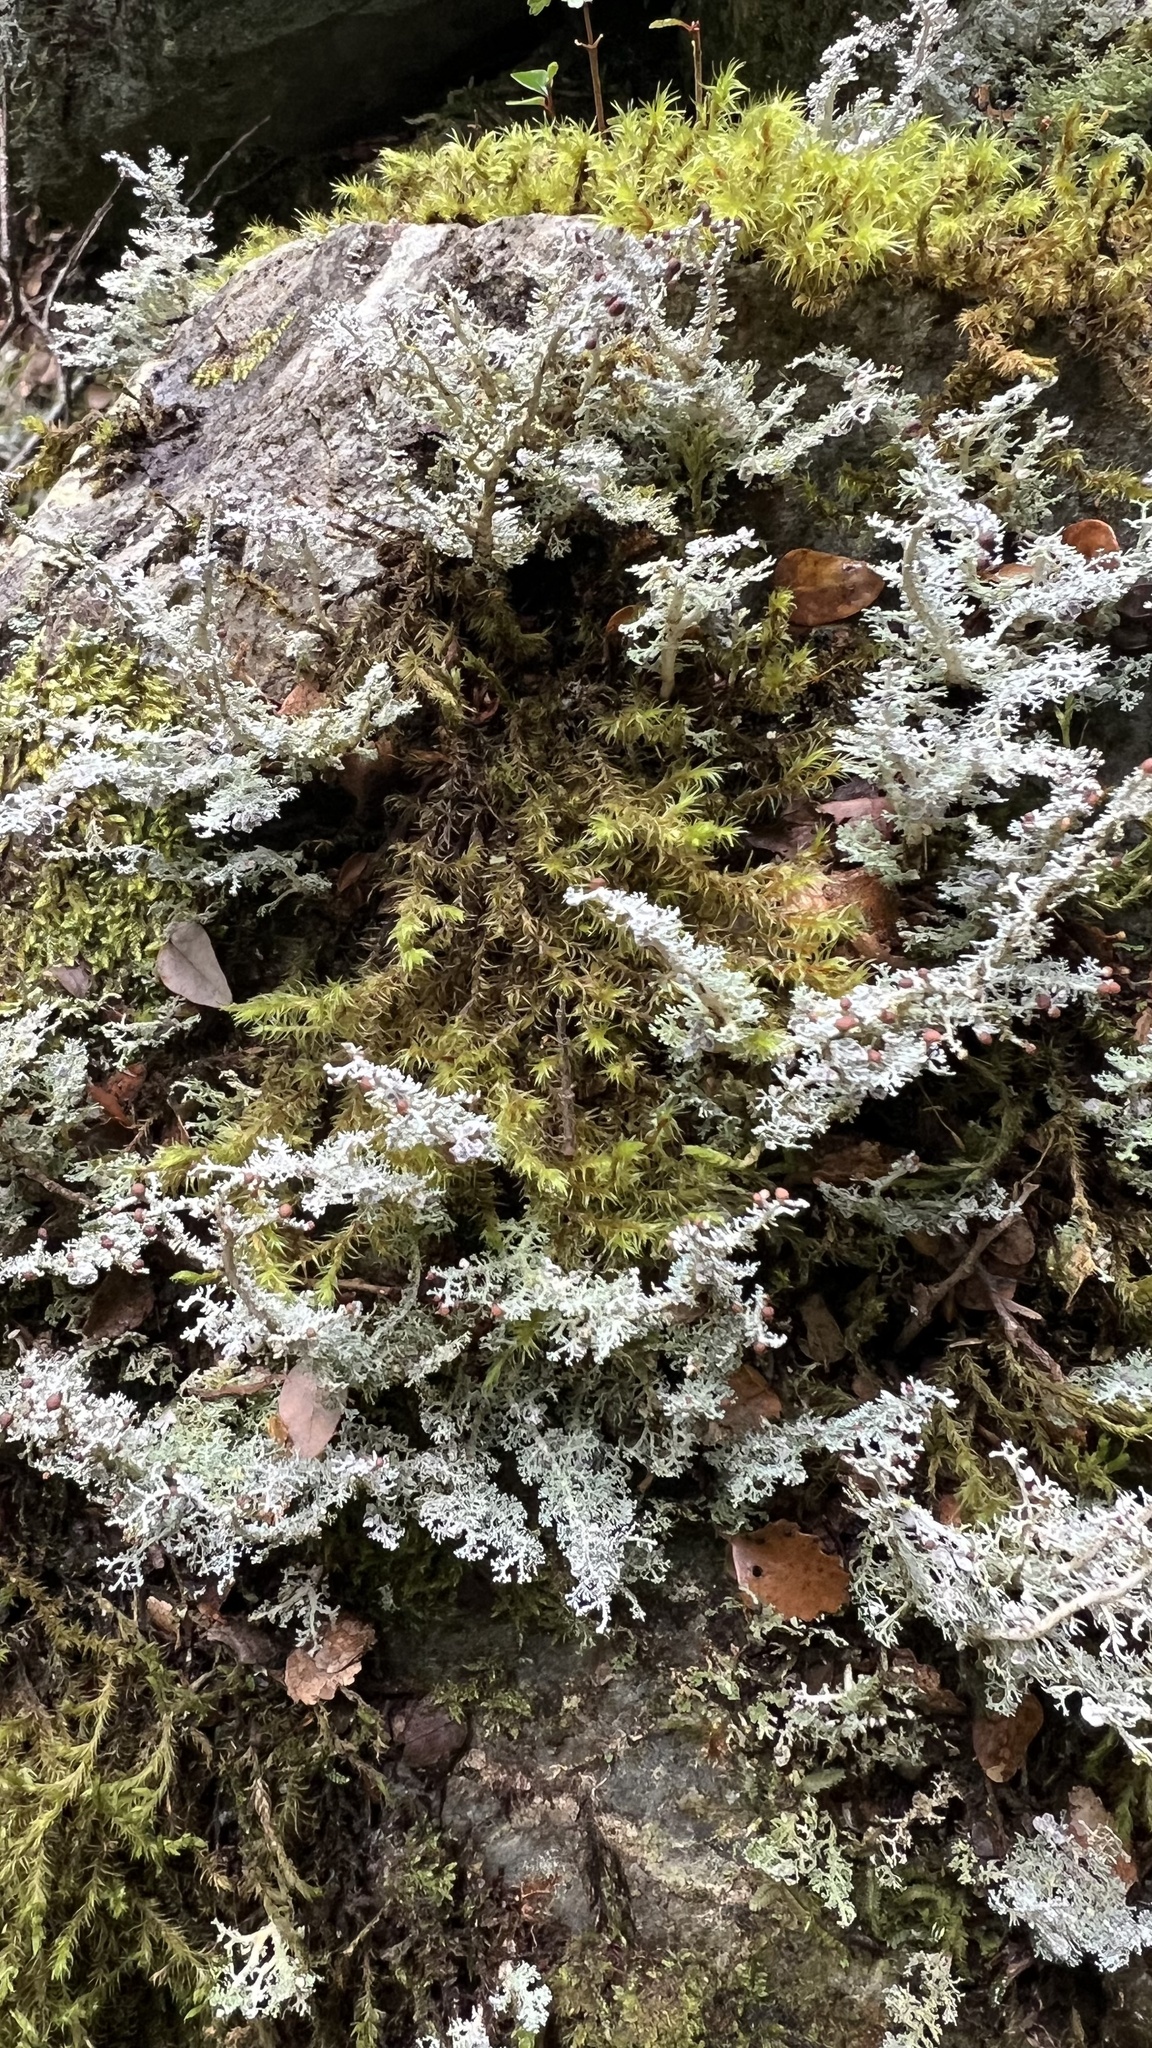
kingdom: Fungi
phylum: Ascomycota
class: Lecanoromycetes
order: Lecanorales
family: Stereocaulaceae
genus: Stereocaulon
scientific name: Stereocaulon ramulosum
